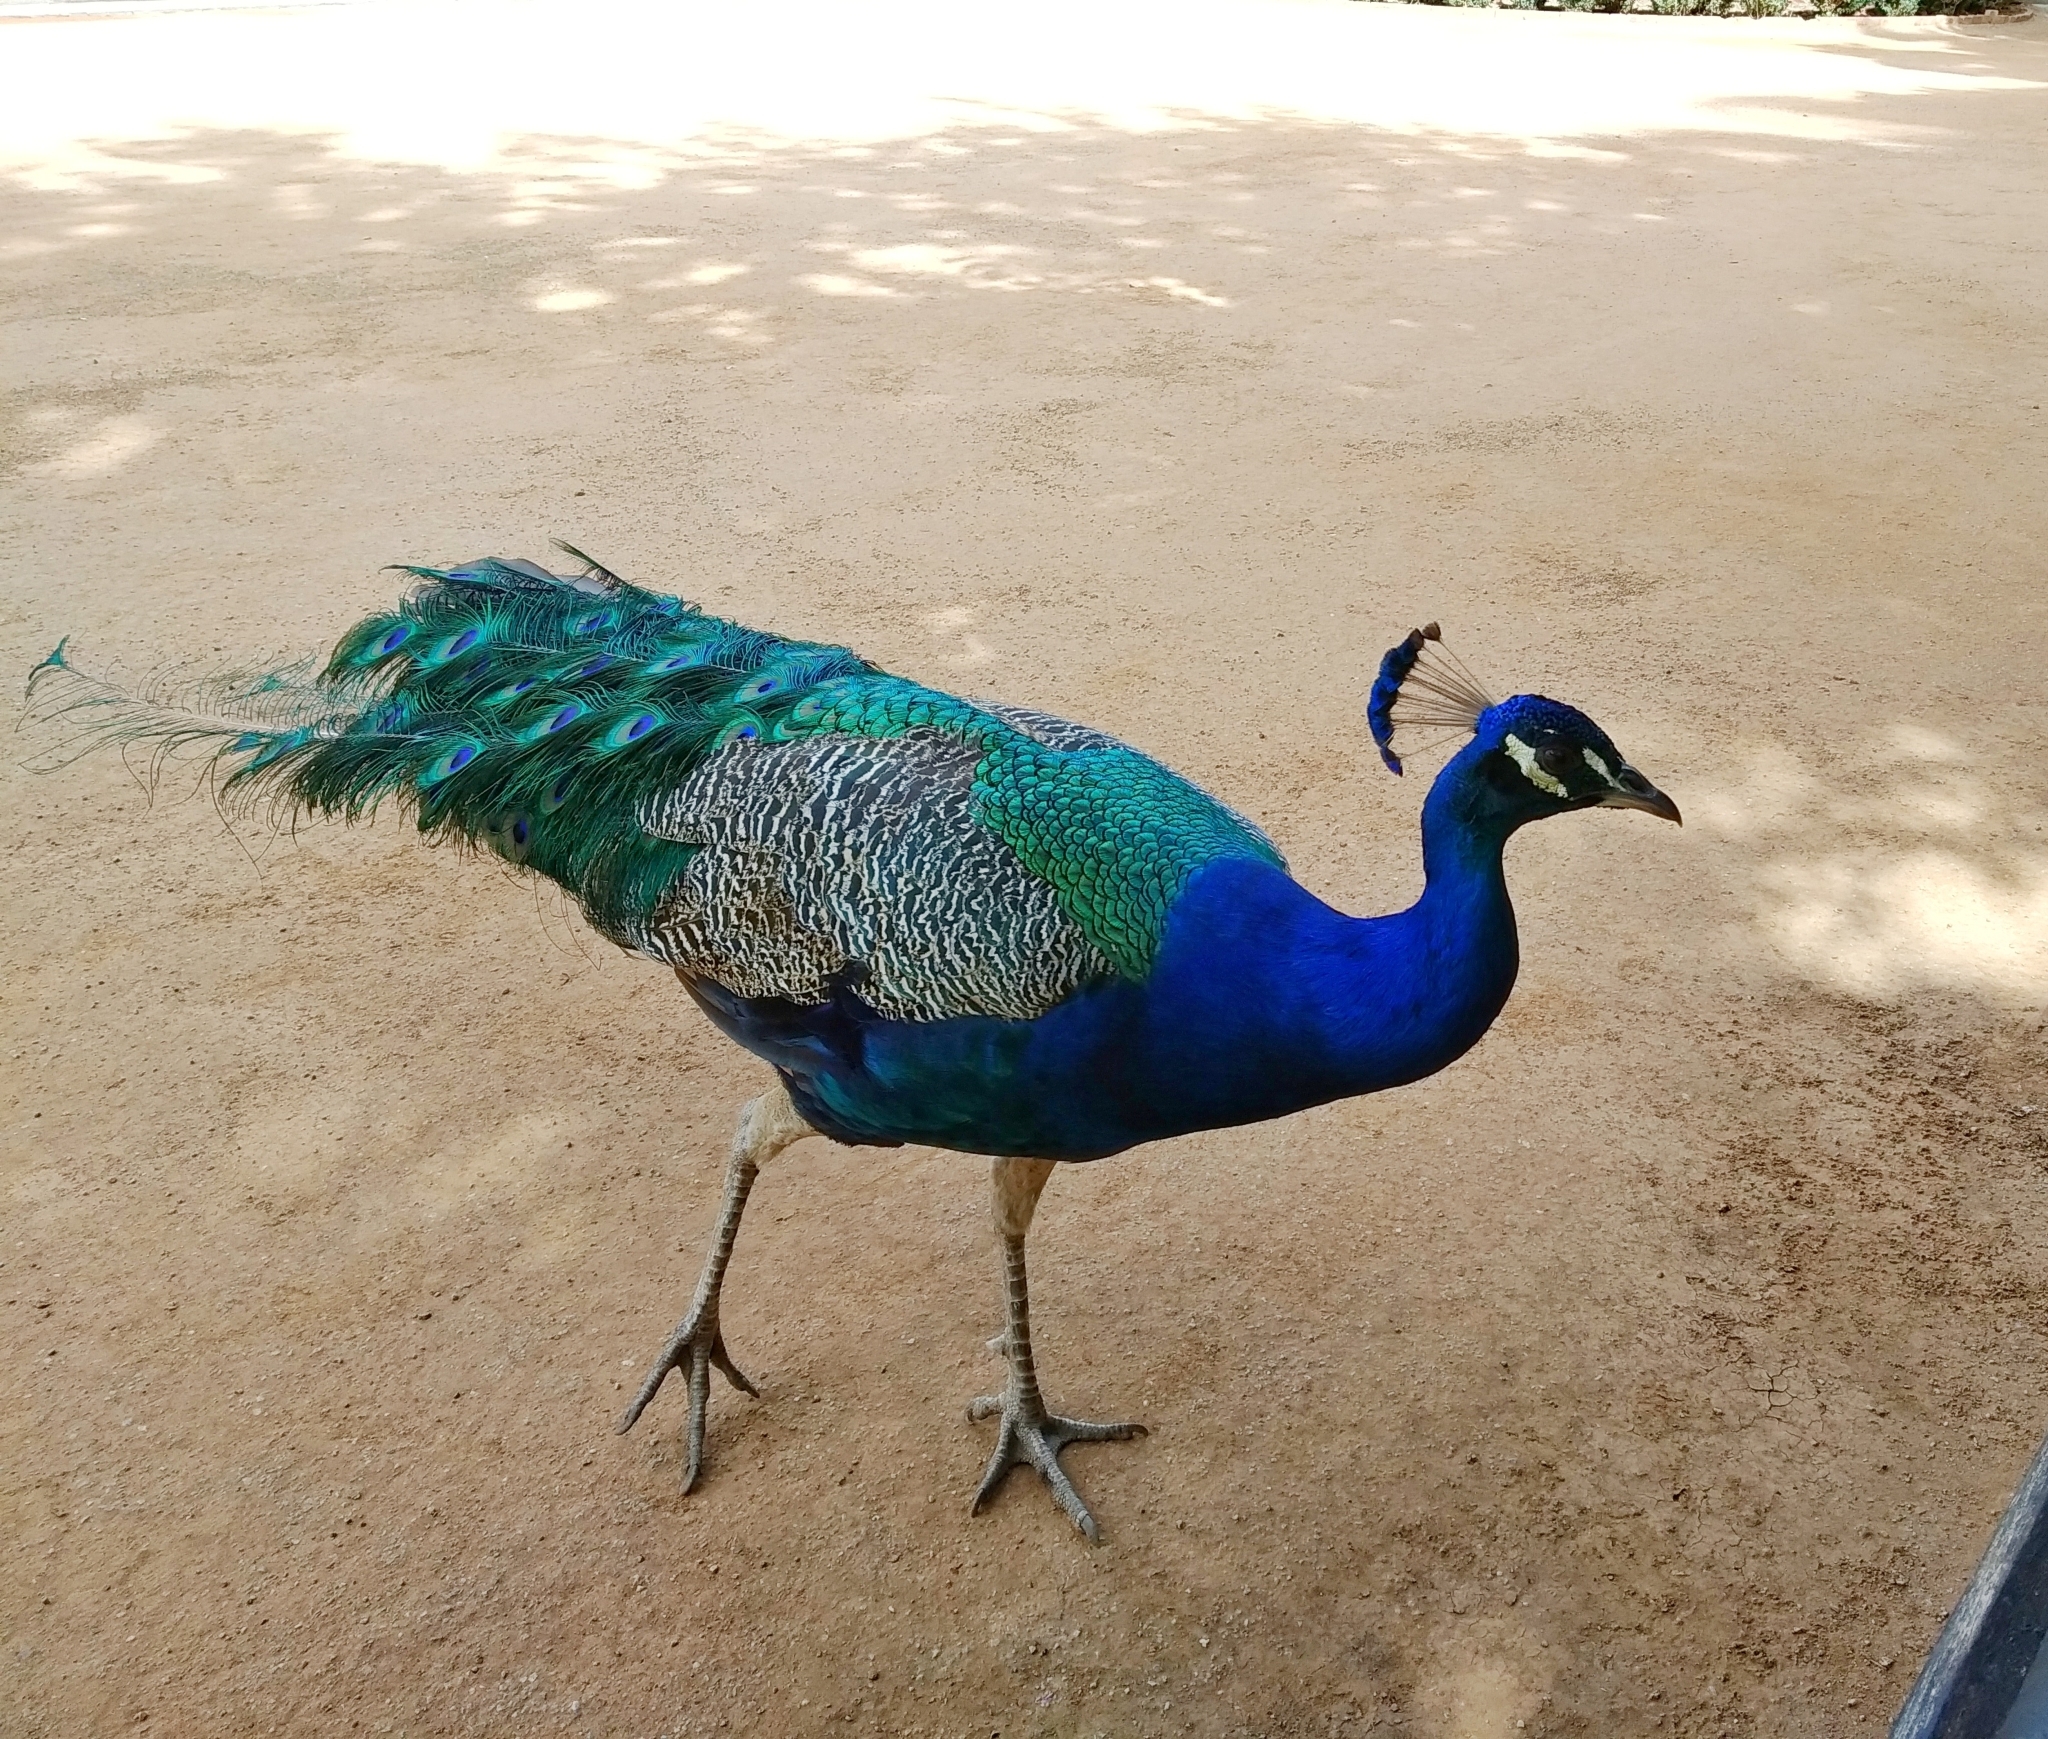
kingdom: Animalia
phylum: Chordata
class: Aves
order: Galliformes
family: Phasianidae
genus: Pavo
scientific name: Pavo cristatus
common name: Indian peafowl
